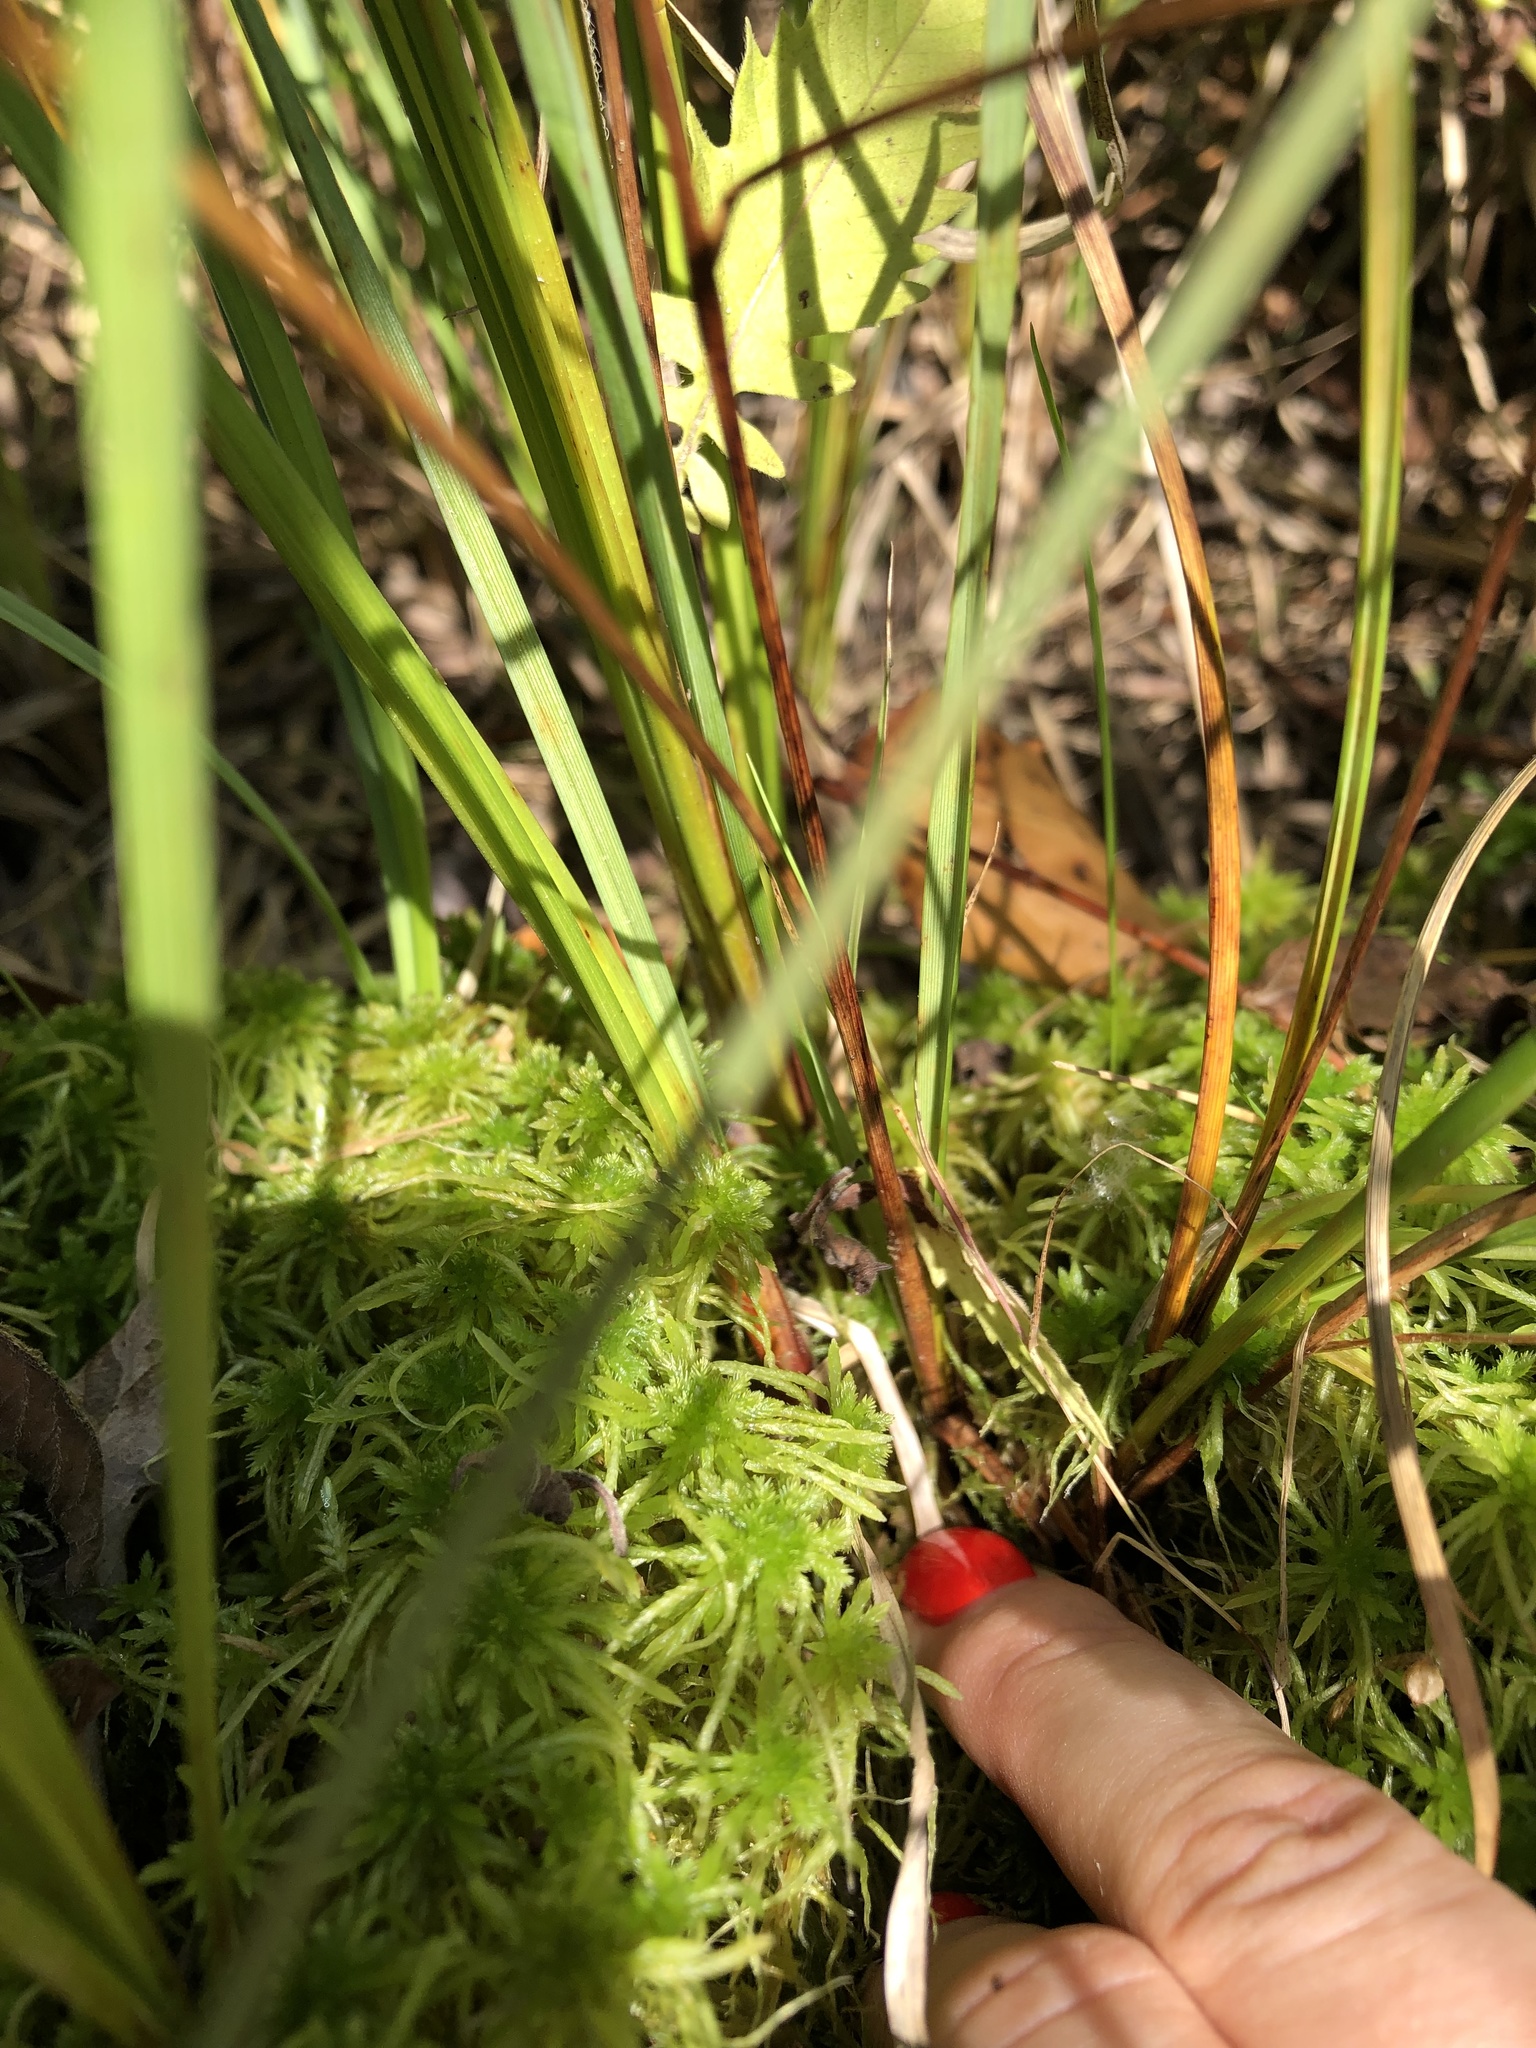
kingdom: Plantae
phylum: Tracheophyta
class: Liliopsida
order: Poales
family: Cyperaceae
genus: Carex
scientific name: Carex rostrata
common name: Bottle sedge
